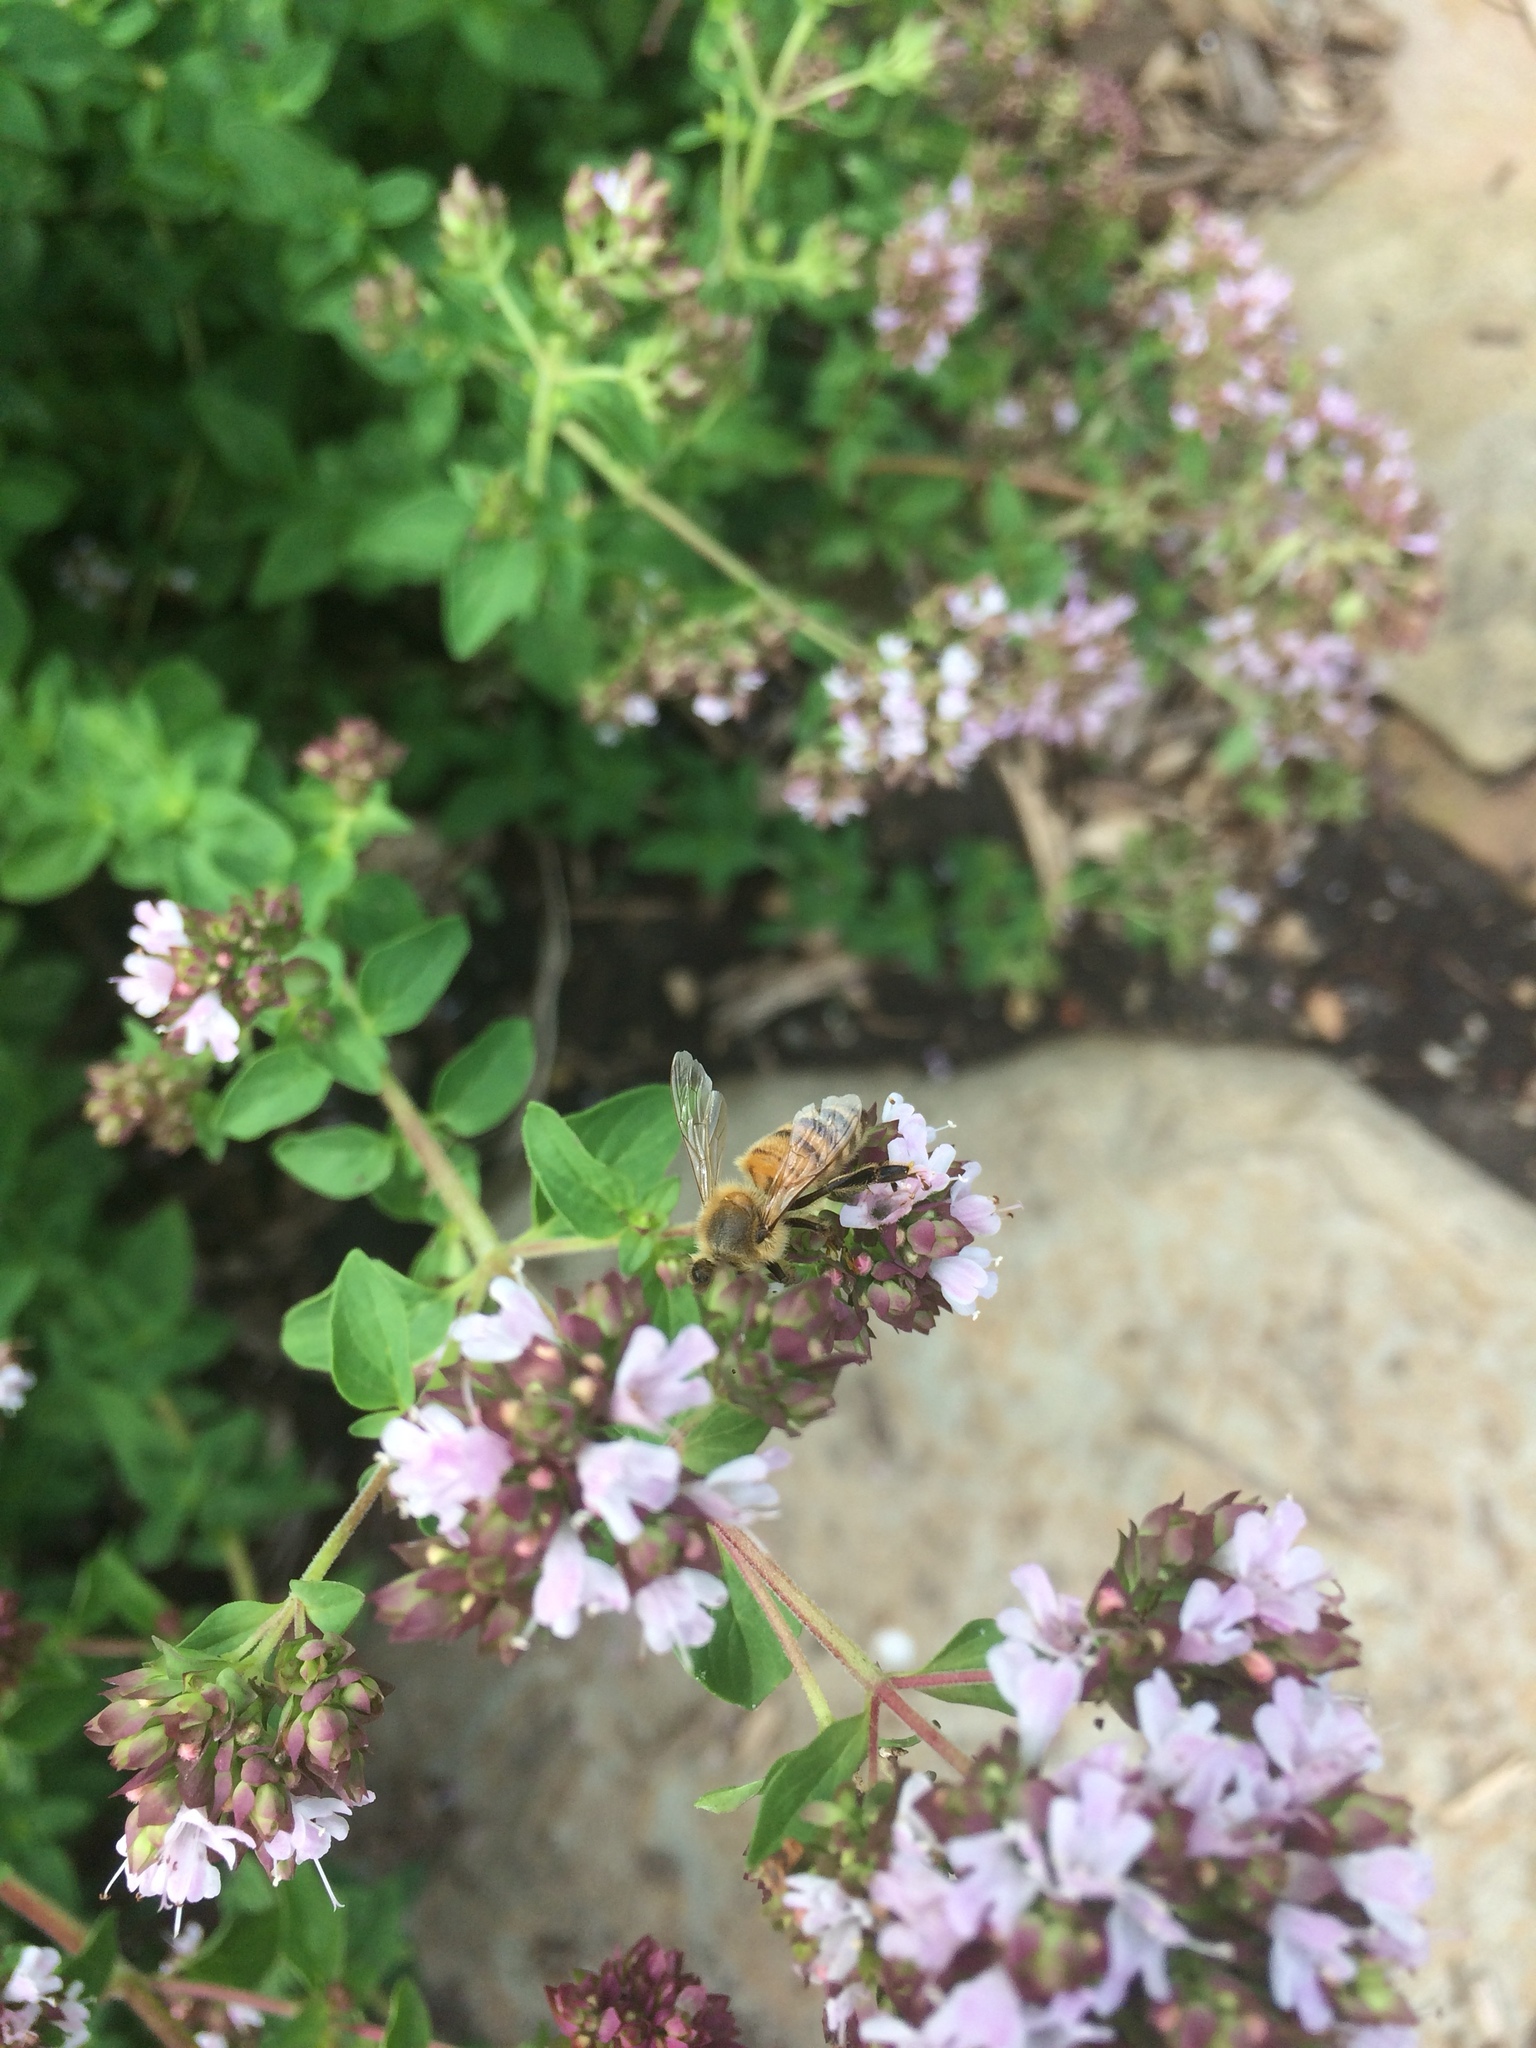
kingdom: Animalia
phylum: Arthropoda
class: Insecta
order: Hymenoptera
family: Apidae
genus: Apis
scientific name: Apis mellifera
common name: Honey bee
